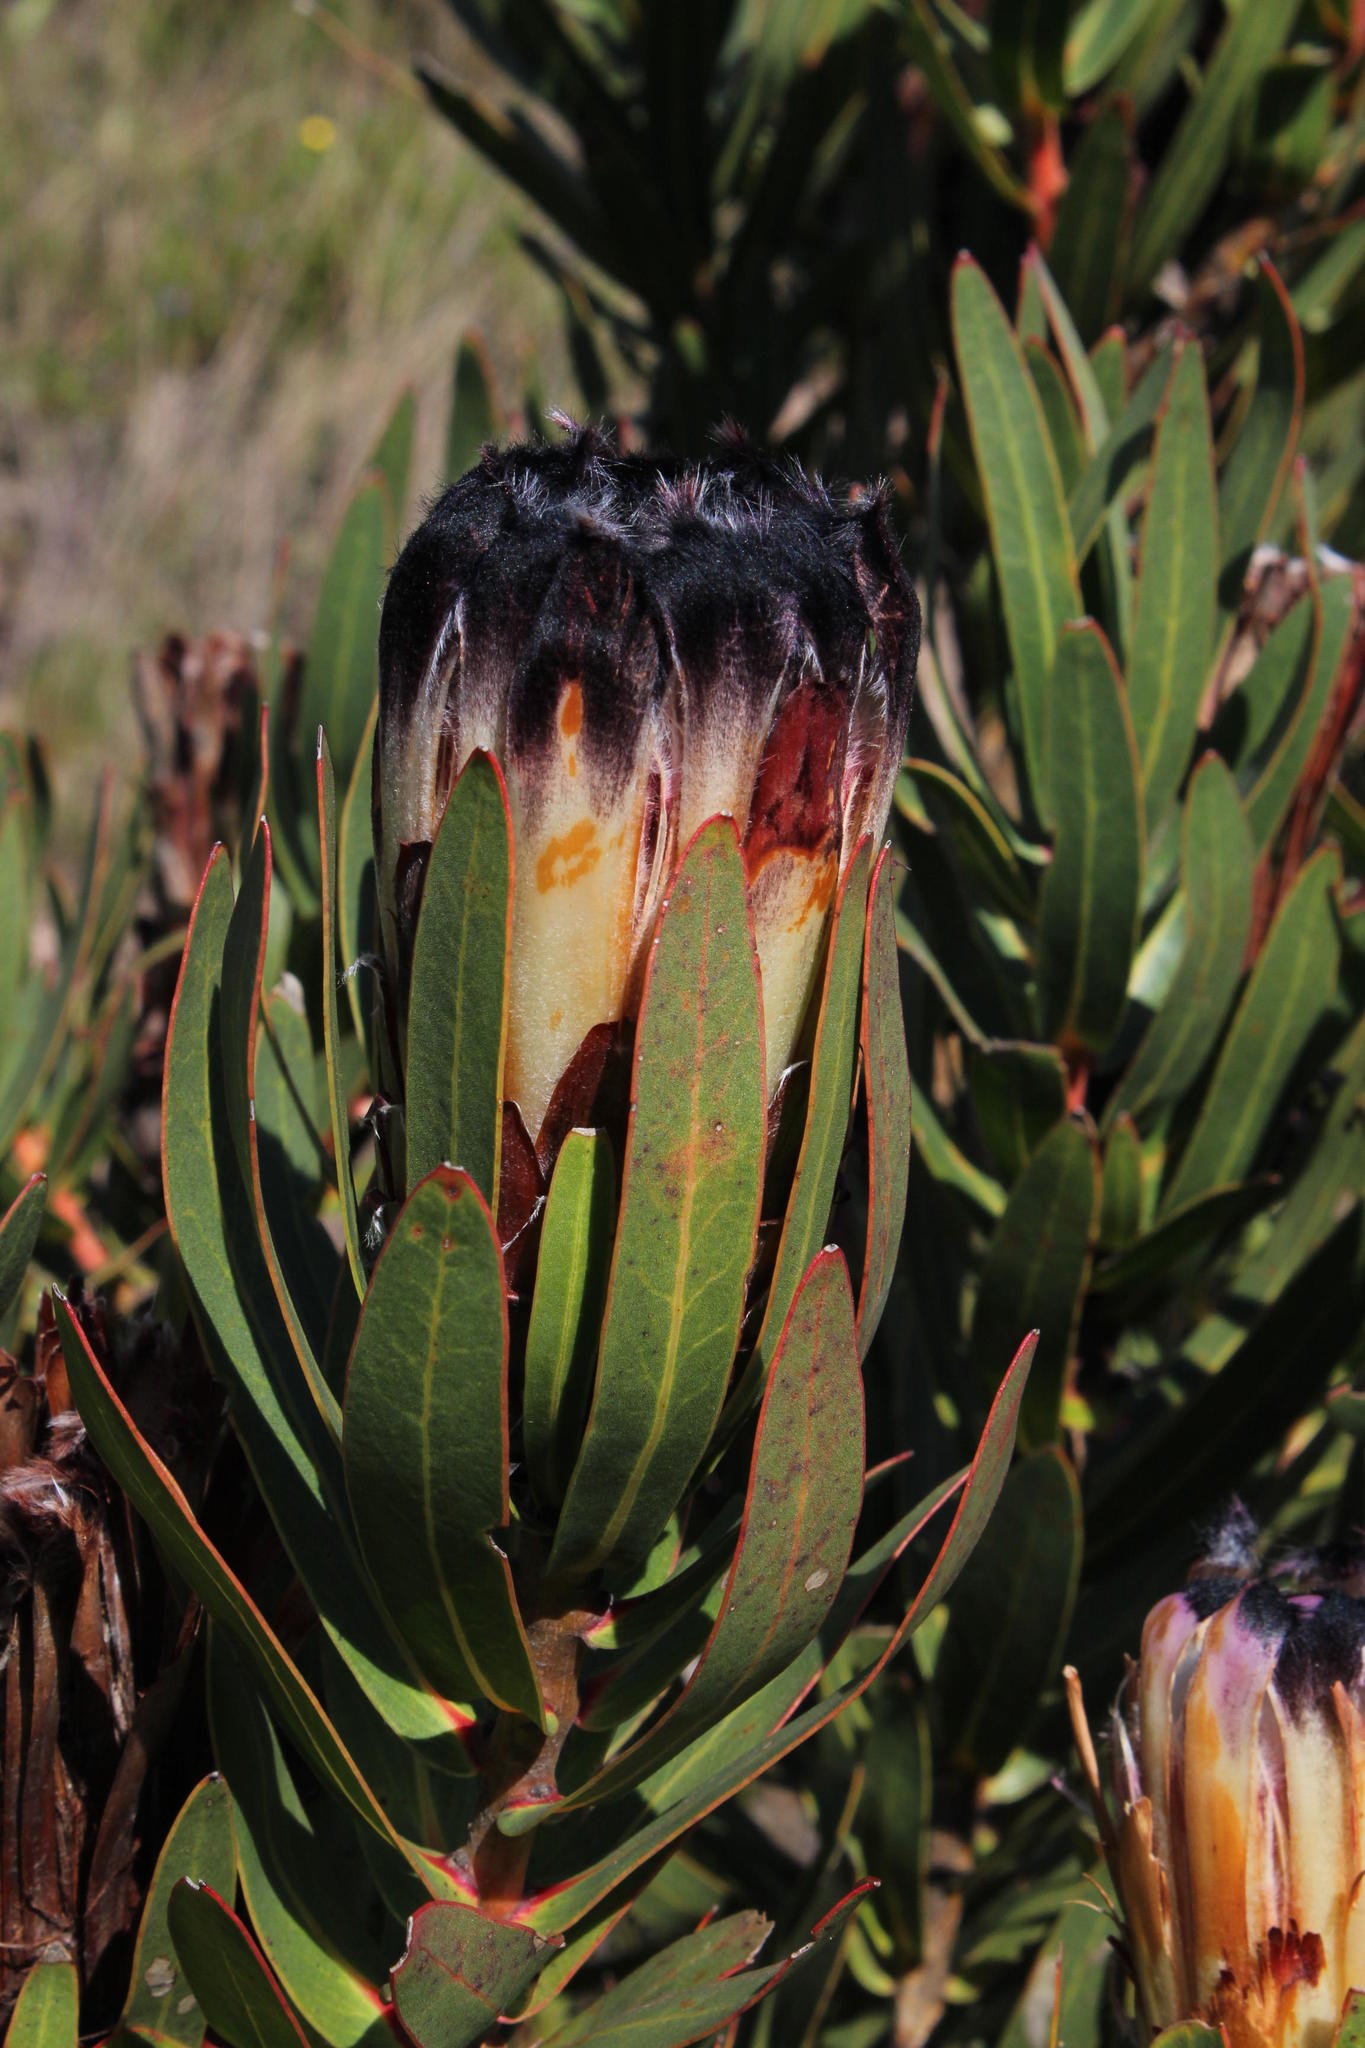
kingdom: Plantae
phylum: Tracheophyta
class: Magnoliopsida
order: Proteales
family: Proteaceae
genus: Protea
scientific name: Protea lepidocarpodendron
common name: Black-bearded protea
